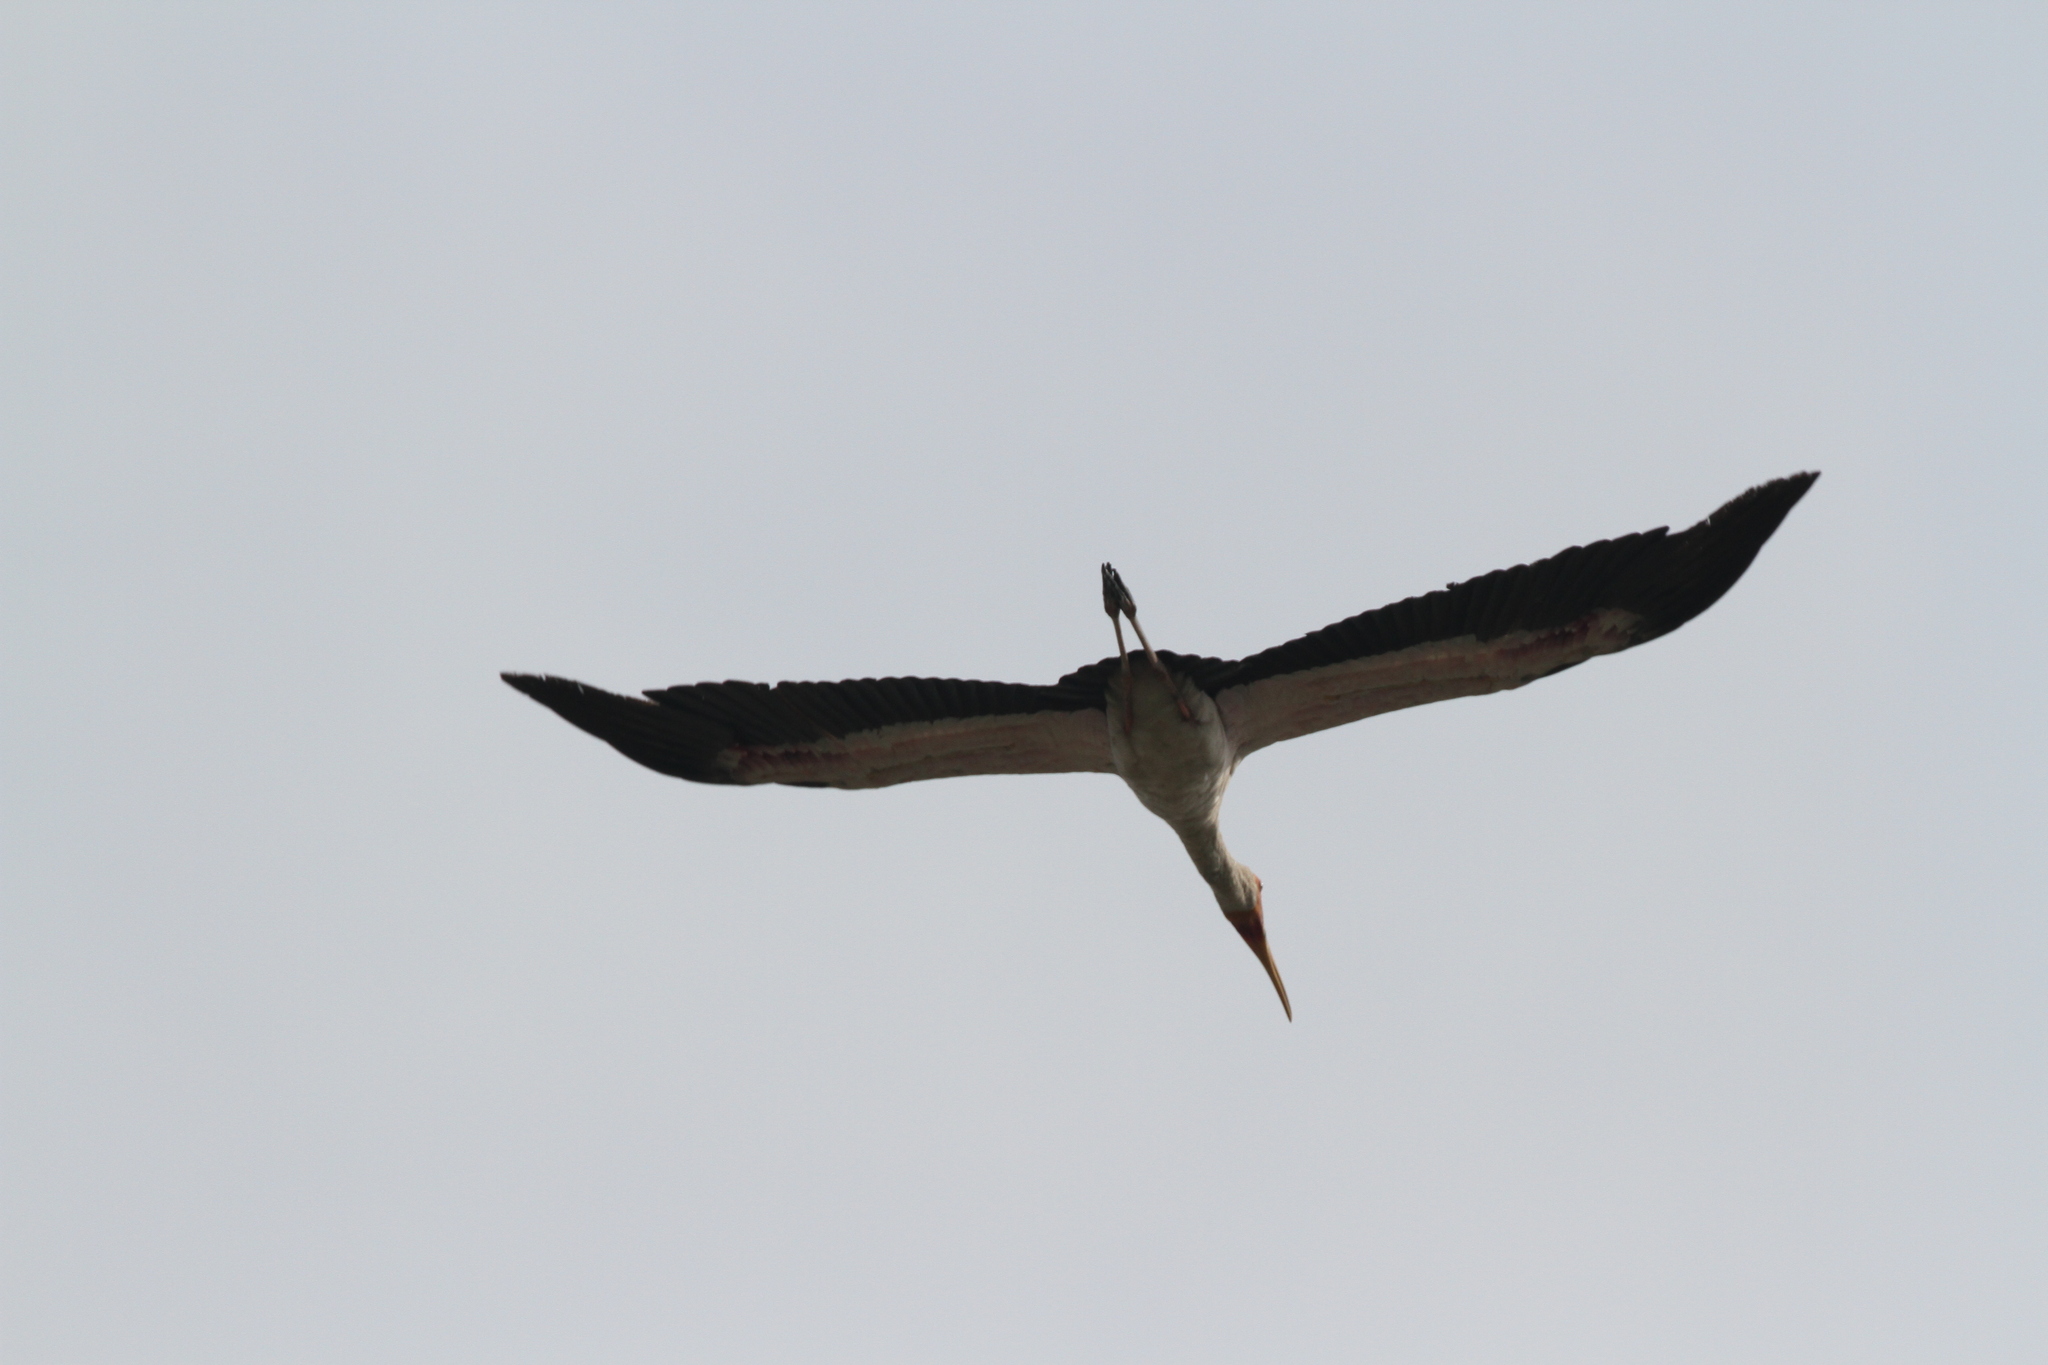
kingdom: Animalia
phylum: Chordata
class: Aves
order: Ciconiiformes
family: Ciconiidae
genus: Mycteria
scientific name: Mycteria ibis
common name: Yellow-billed stork
